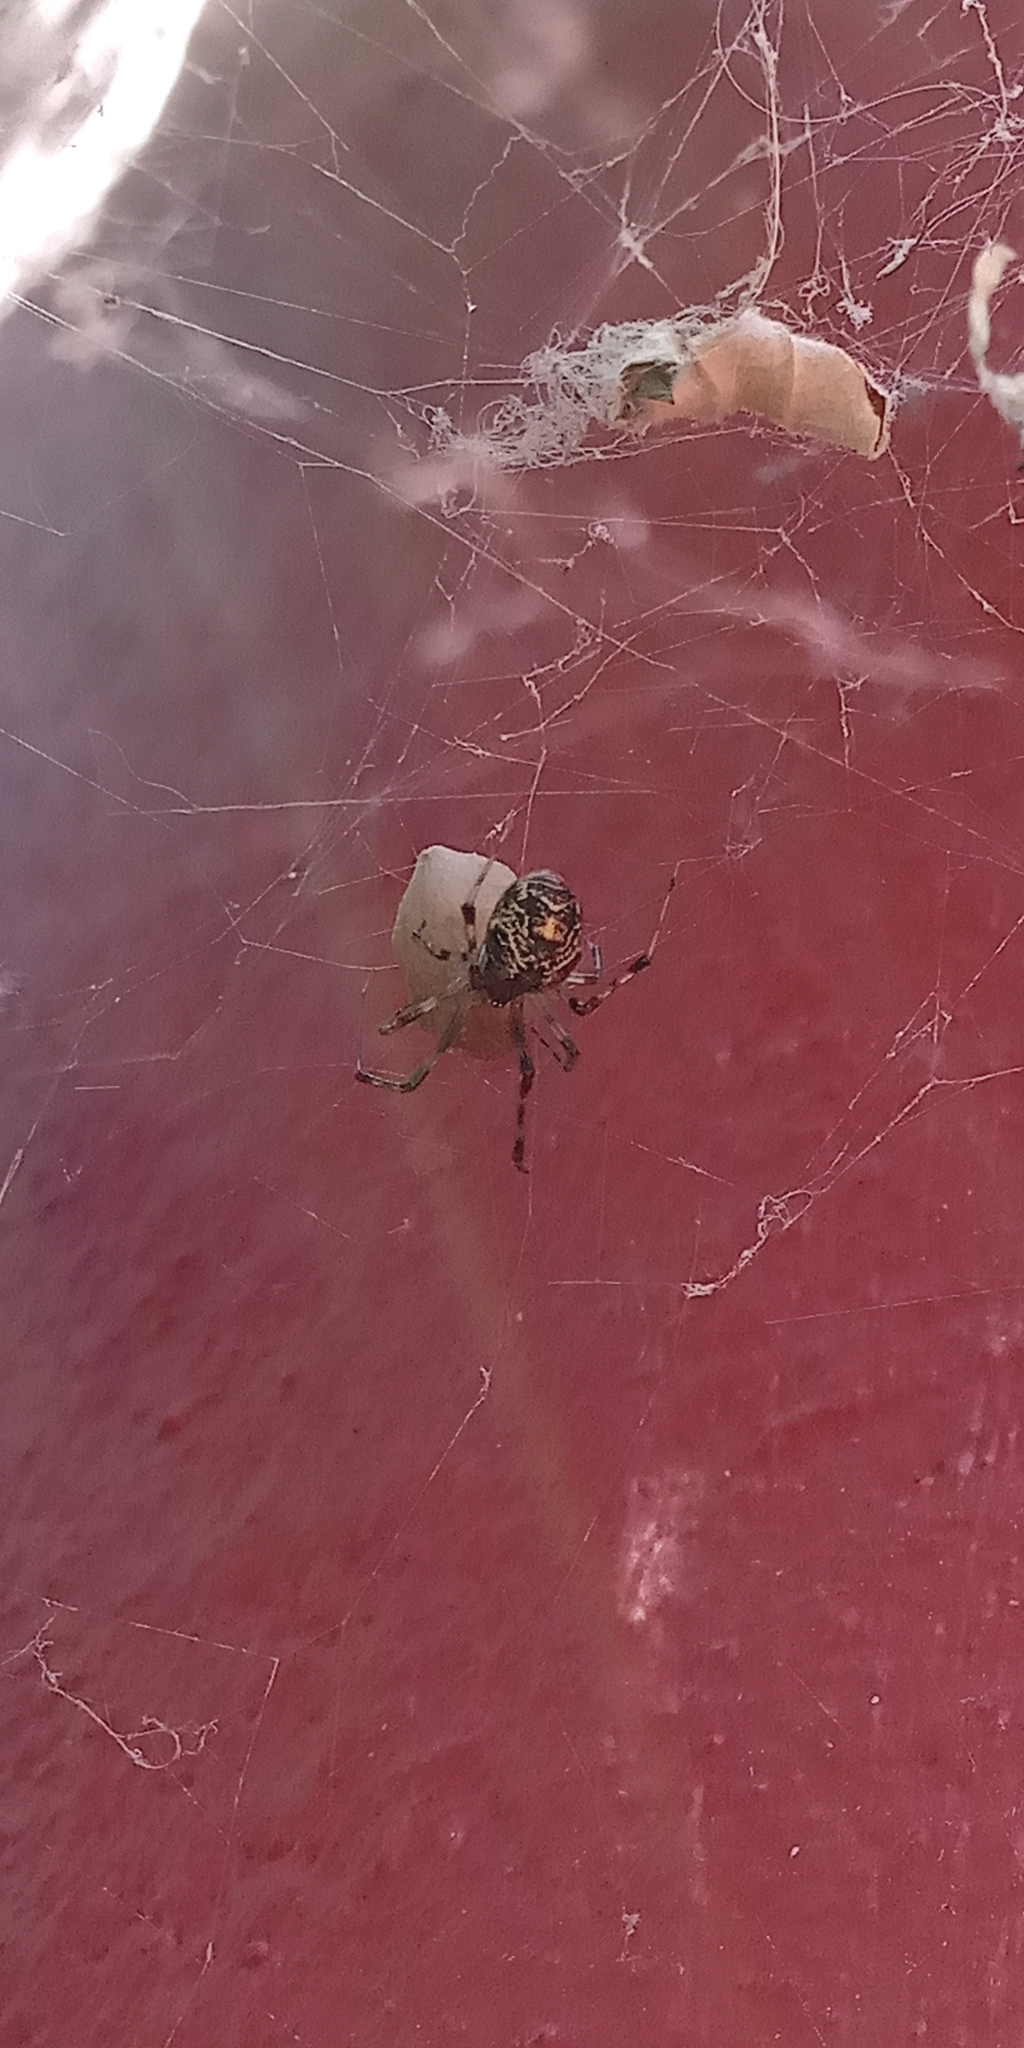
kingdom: Animalia
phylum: Arthropoda
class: Arachnida
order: Araneae
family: Theridiidae
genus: Parasteatoda
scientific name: Parasteatoda tepidariorum
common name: Common house spider
